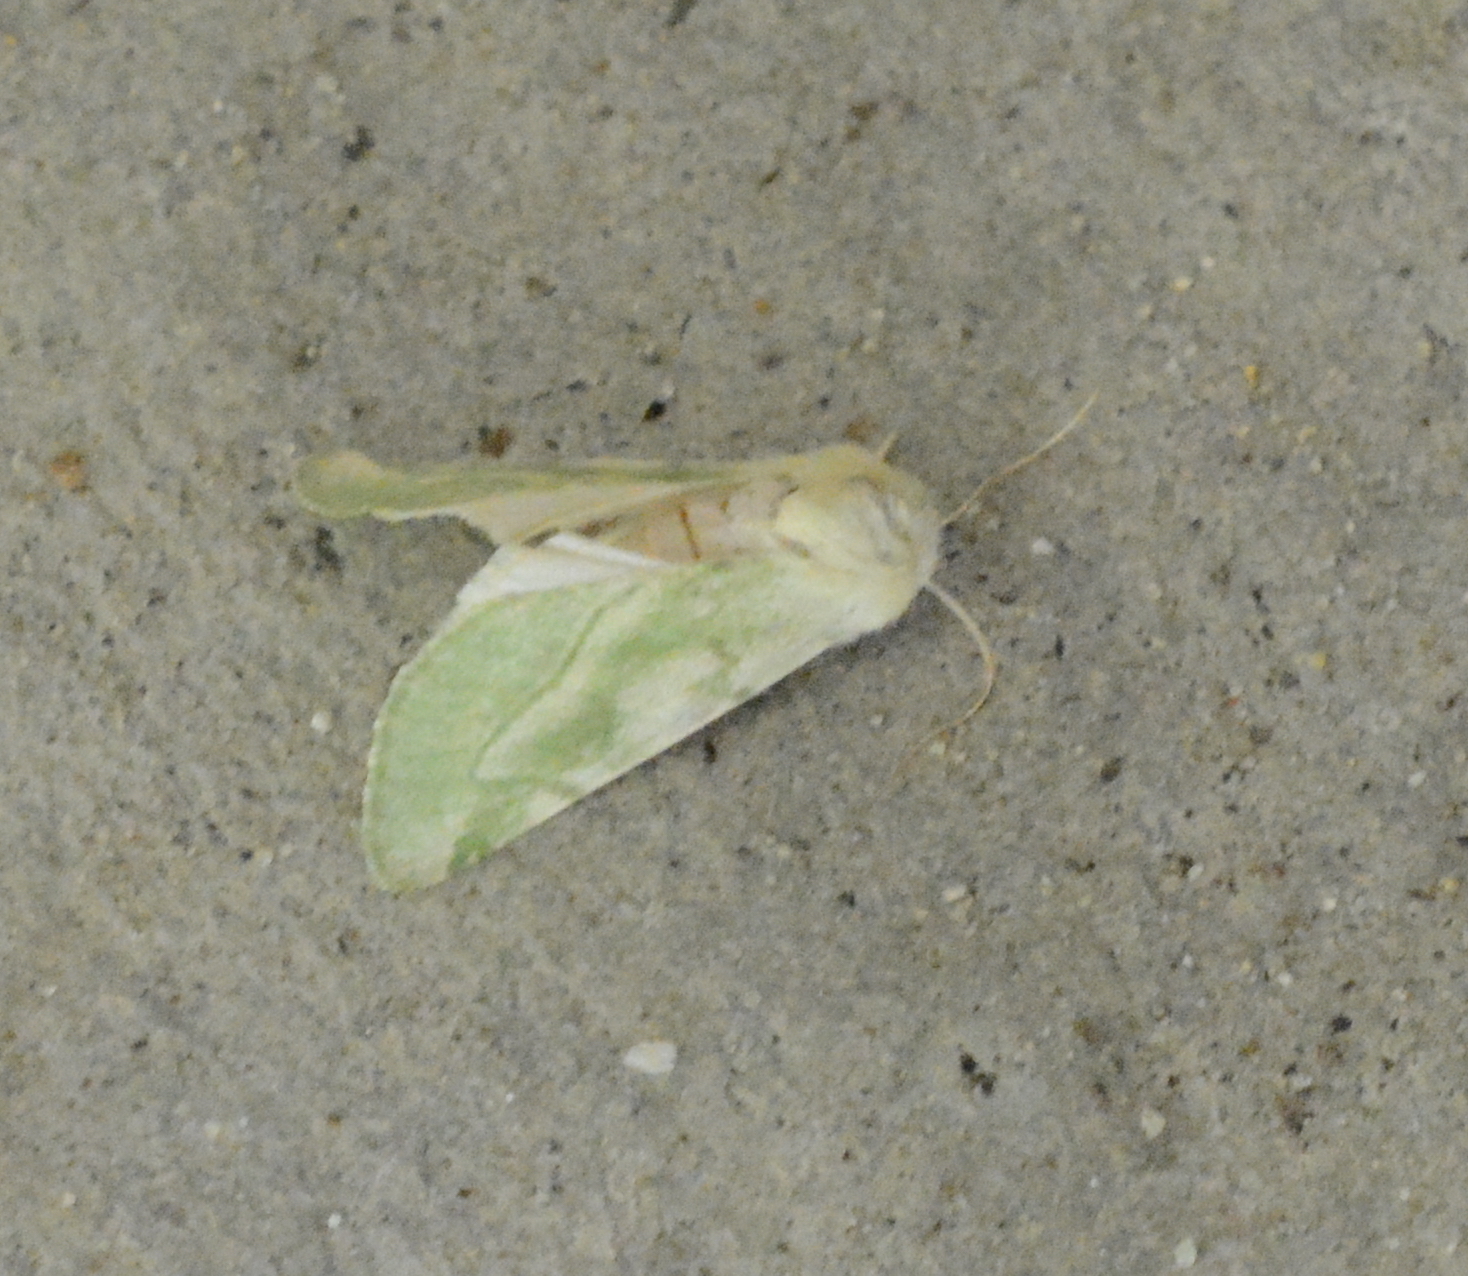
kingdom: Animalia
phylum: Arthropoda
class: Insecta
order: Lepidoptera
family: Noctuidae
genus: Zotheca
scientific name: Zotheca tranquilla
